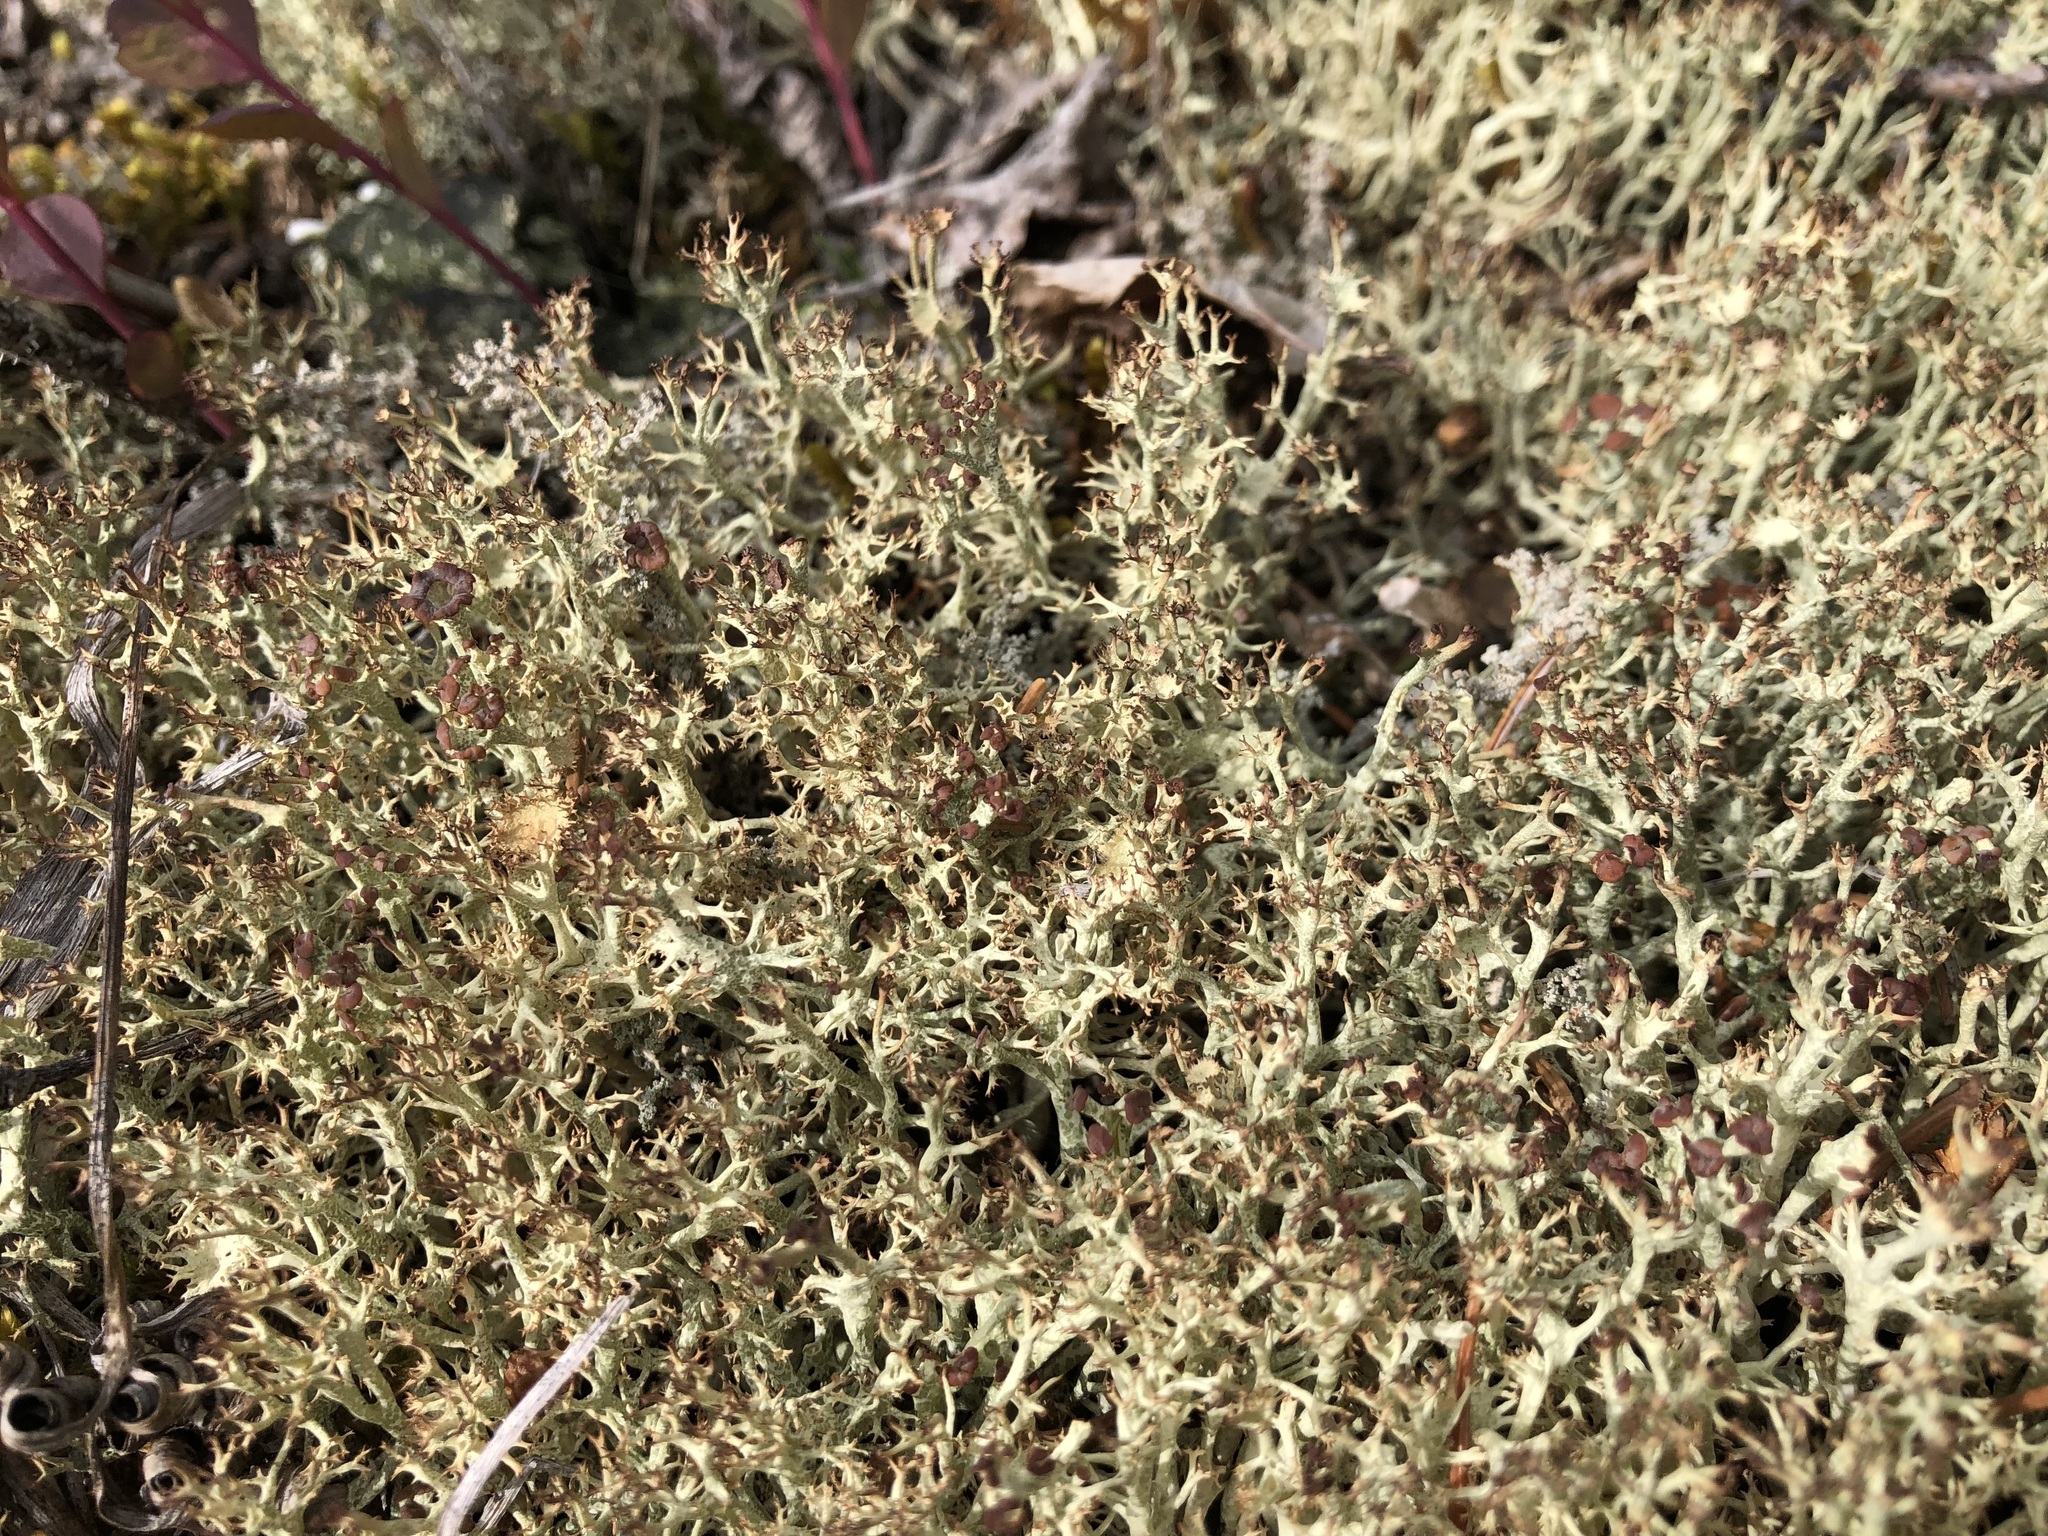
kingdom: Fungi
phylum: Ascomycota
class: Lecanoromycetes
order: Lecanorales
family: Cladoniaceae
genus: Cladonia
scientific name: Cladonia crispata
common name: Organ-pipe lichen
